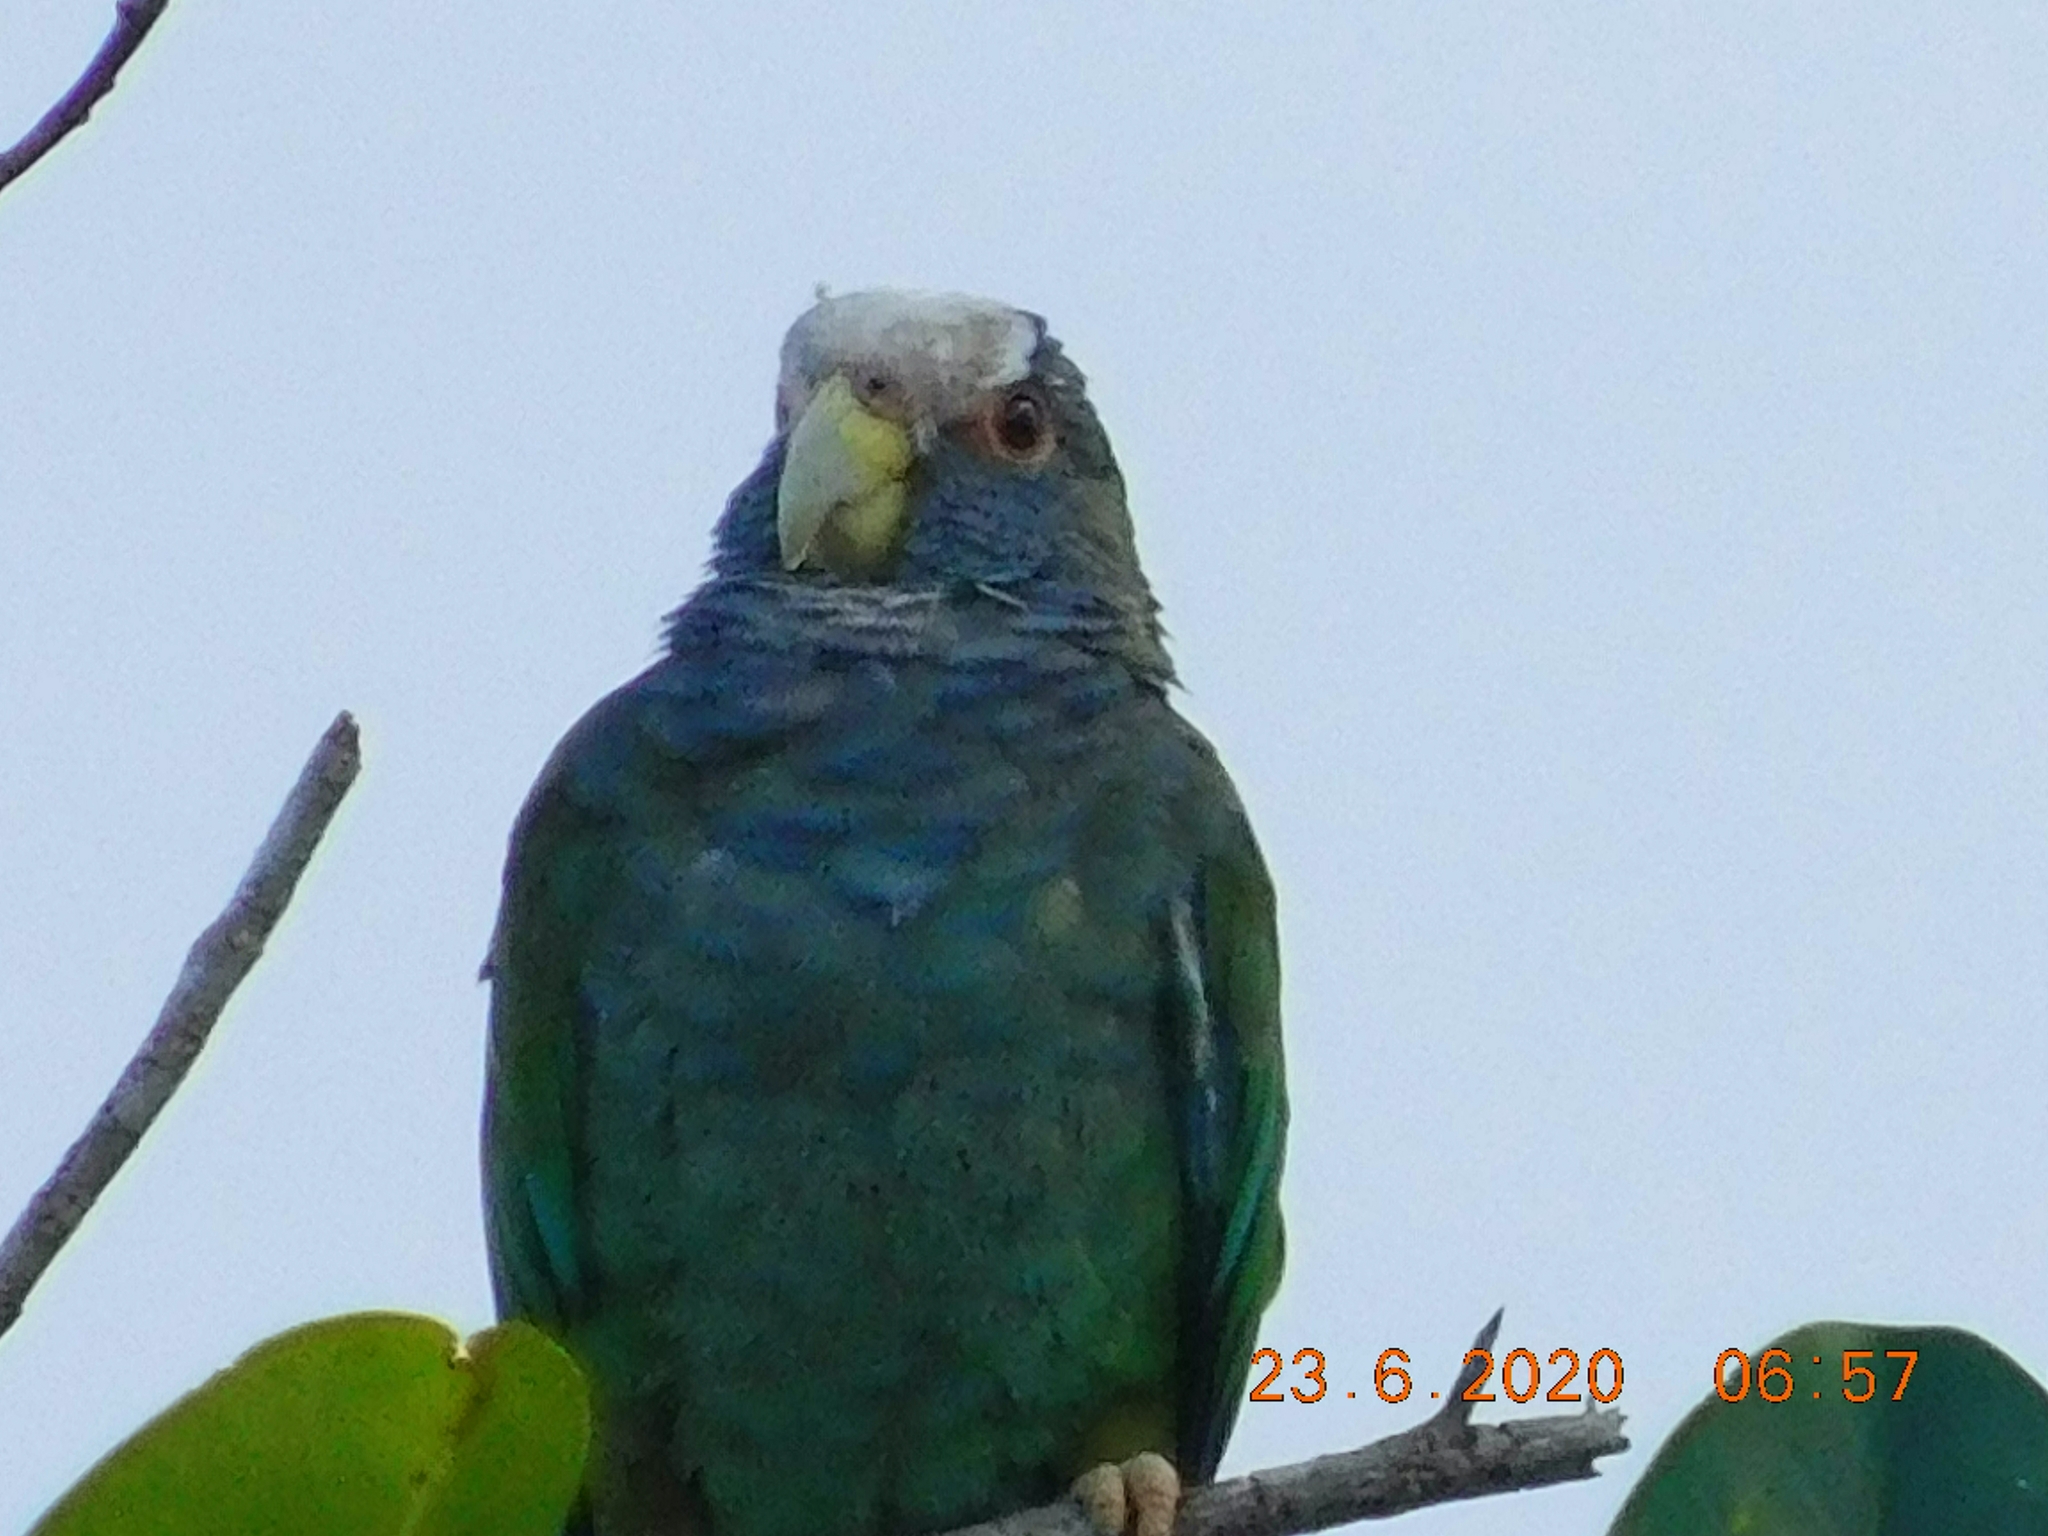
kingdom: Animalia
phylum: Chordata
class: Aves
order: Psittaciformes
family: Psittacidae
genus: Pionus
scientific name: Pionus senilis
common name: White-crowned parrot
